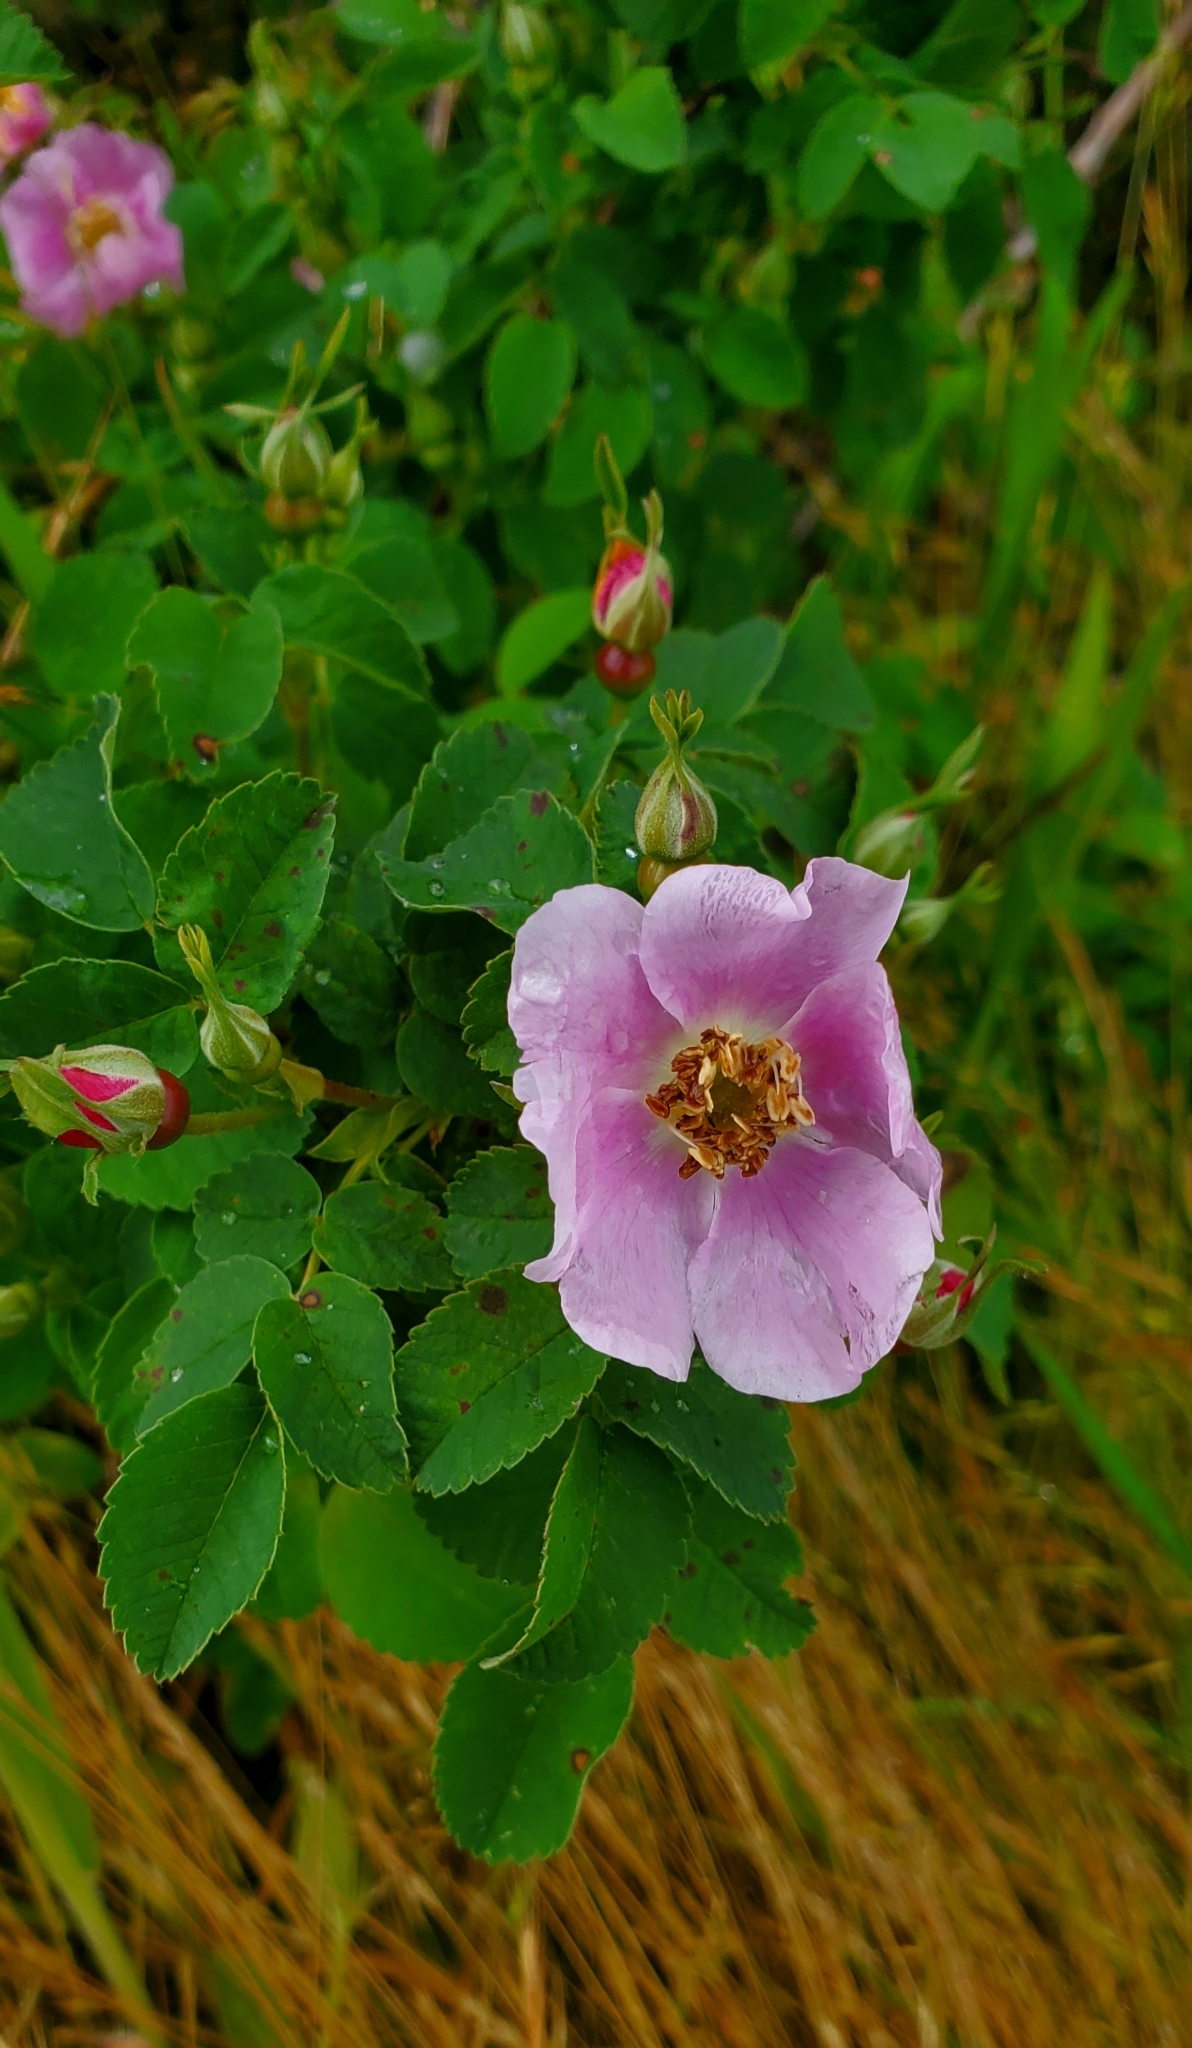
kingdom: Plantae
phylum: Tracheophyta
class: Magnoliopsida
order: Rosales
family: Rosaceae
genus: Rosa
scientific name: Rosa nutkana
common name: Nootka rose
